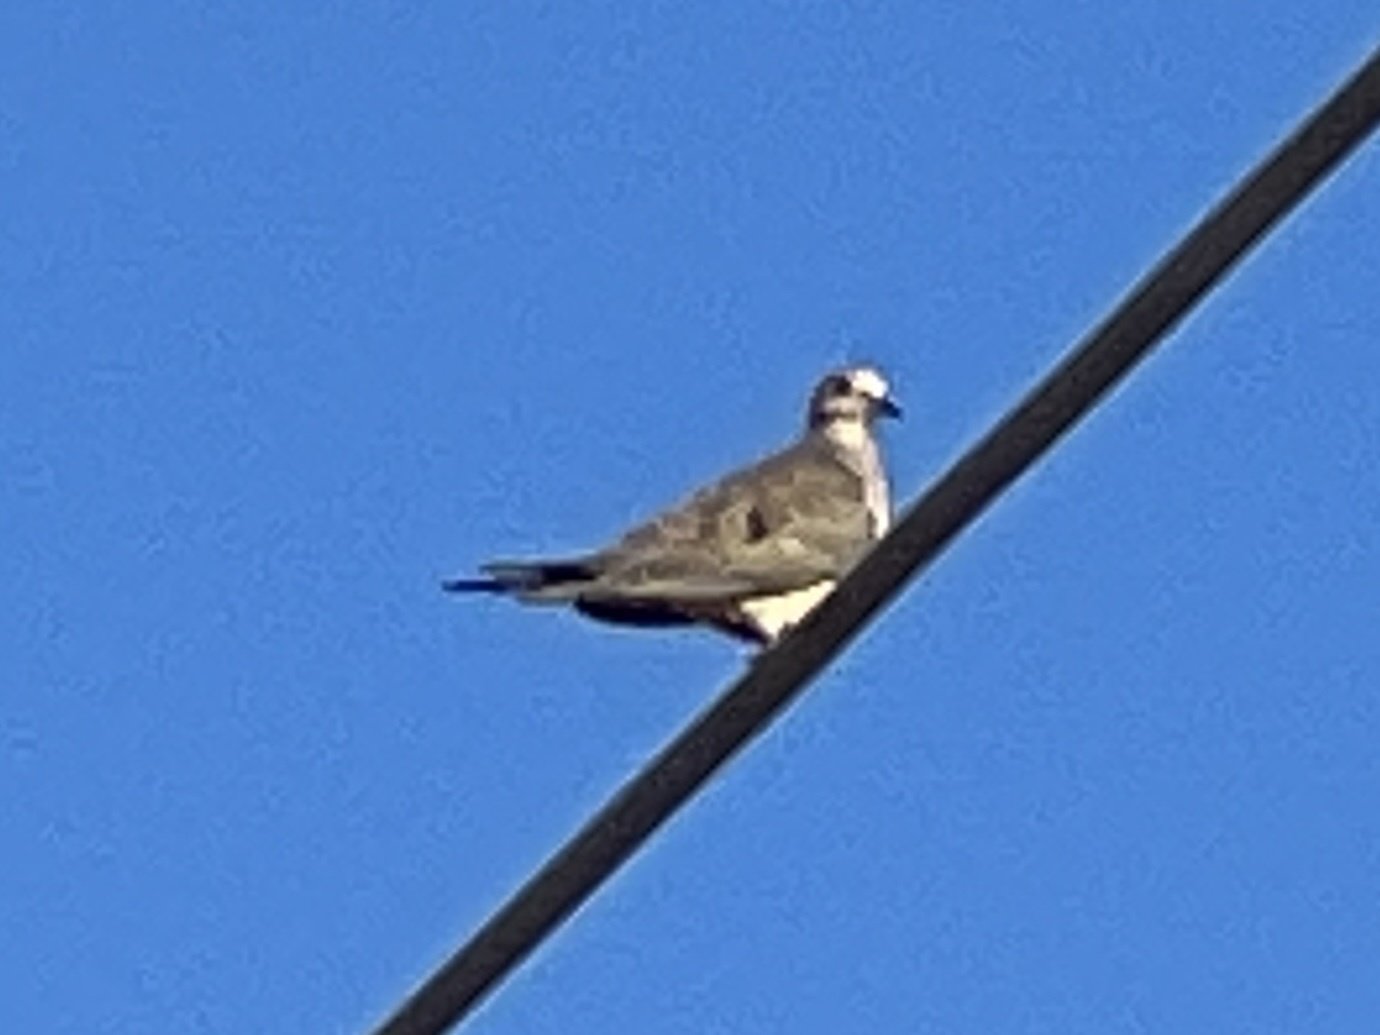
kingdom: Animalia
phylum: Chordata
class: Aves
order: Columbiformes
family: Columbidae
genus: Zenaida
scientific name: Zenaida macroura
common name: Mourning dove
